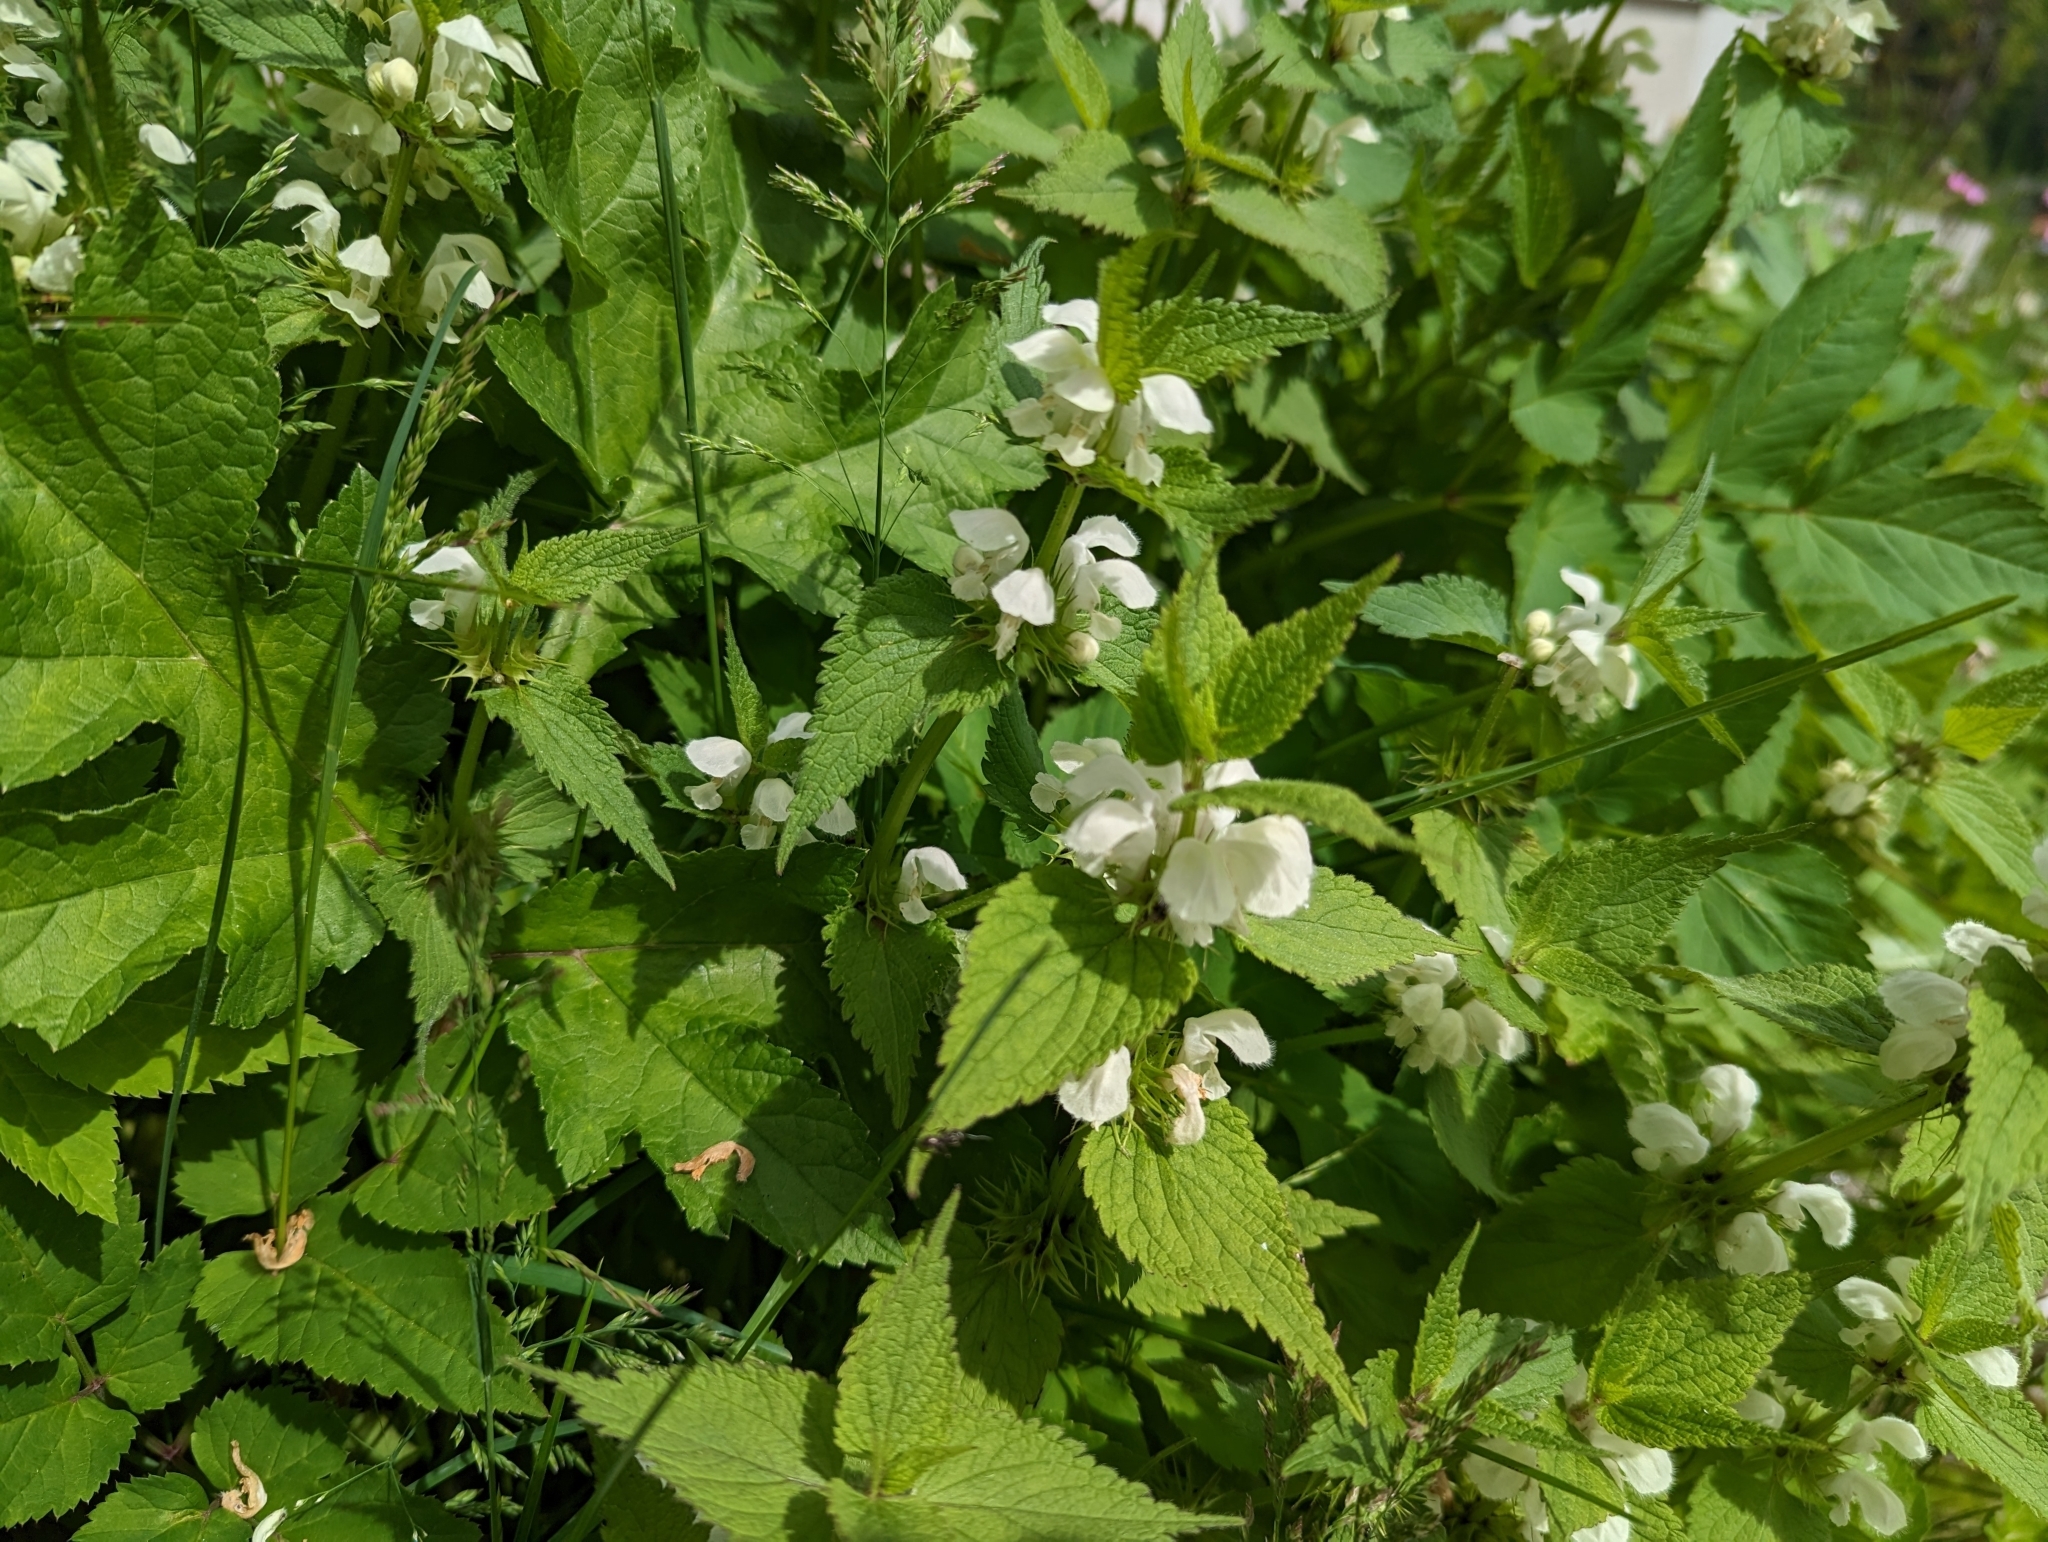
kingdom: Plantae
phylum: Tracheophyta
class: Magnoliopsida
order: Lamiales
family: Lamiaceae
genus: Lamium
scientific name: Lamium album
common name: White dead-nettle
